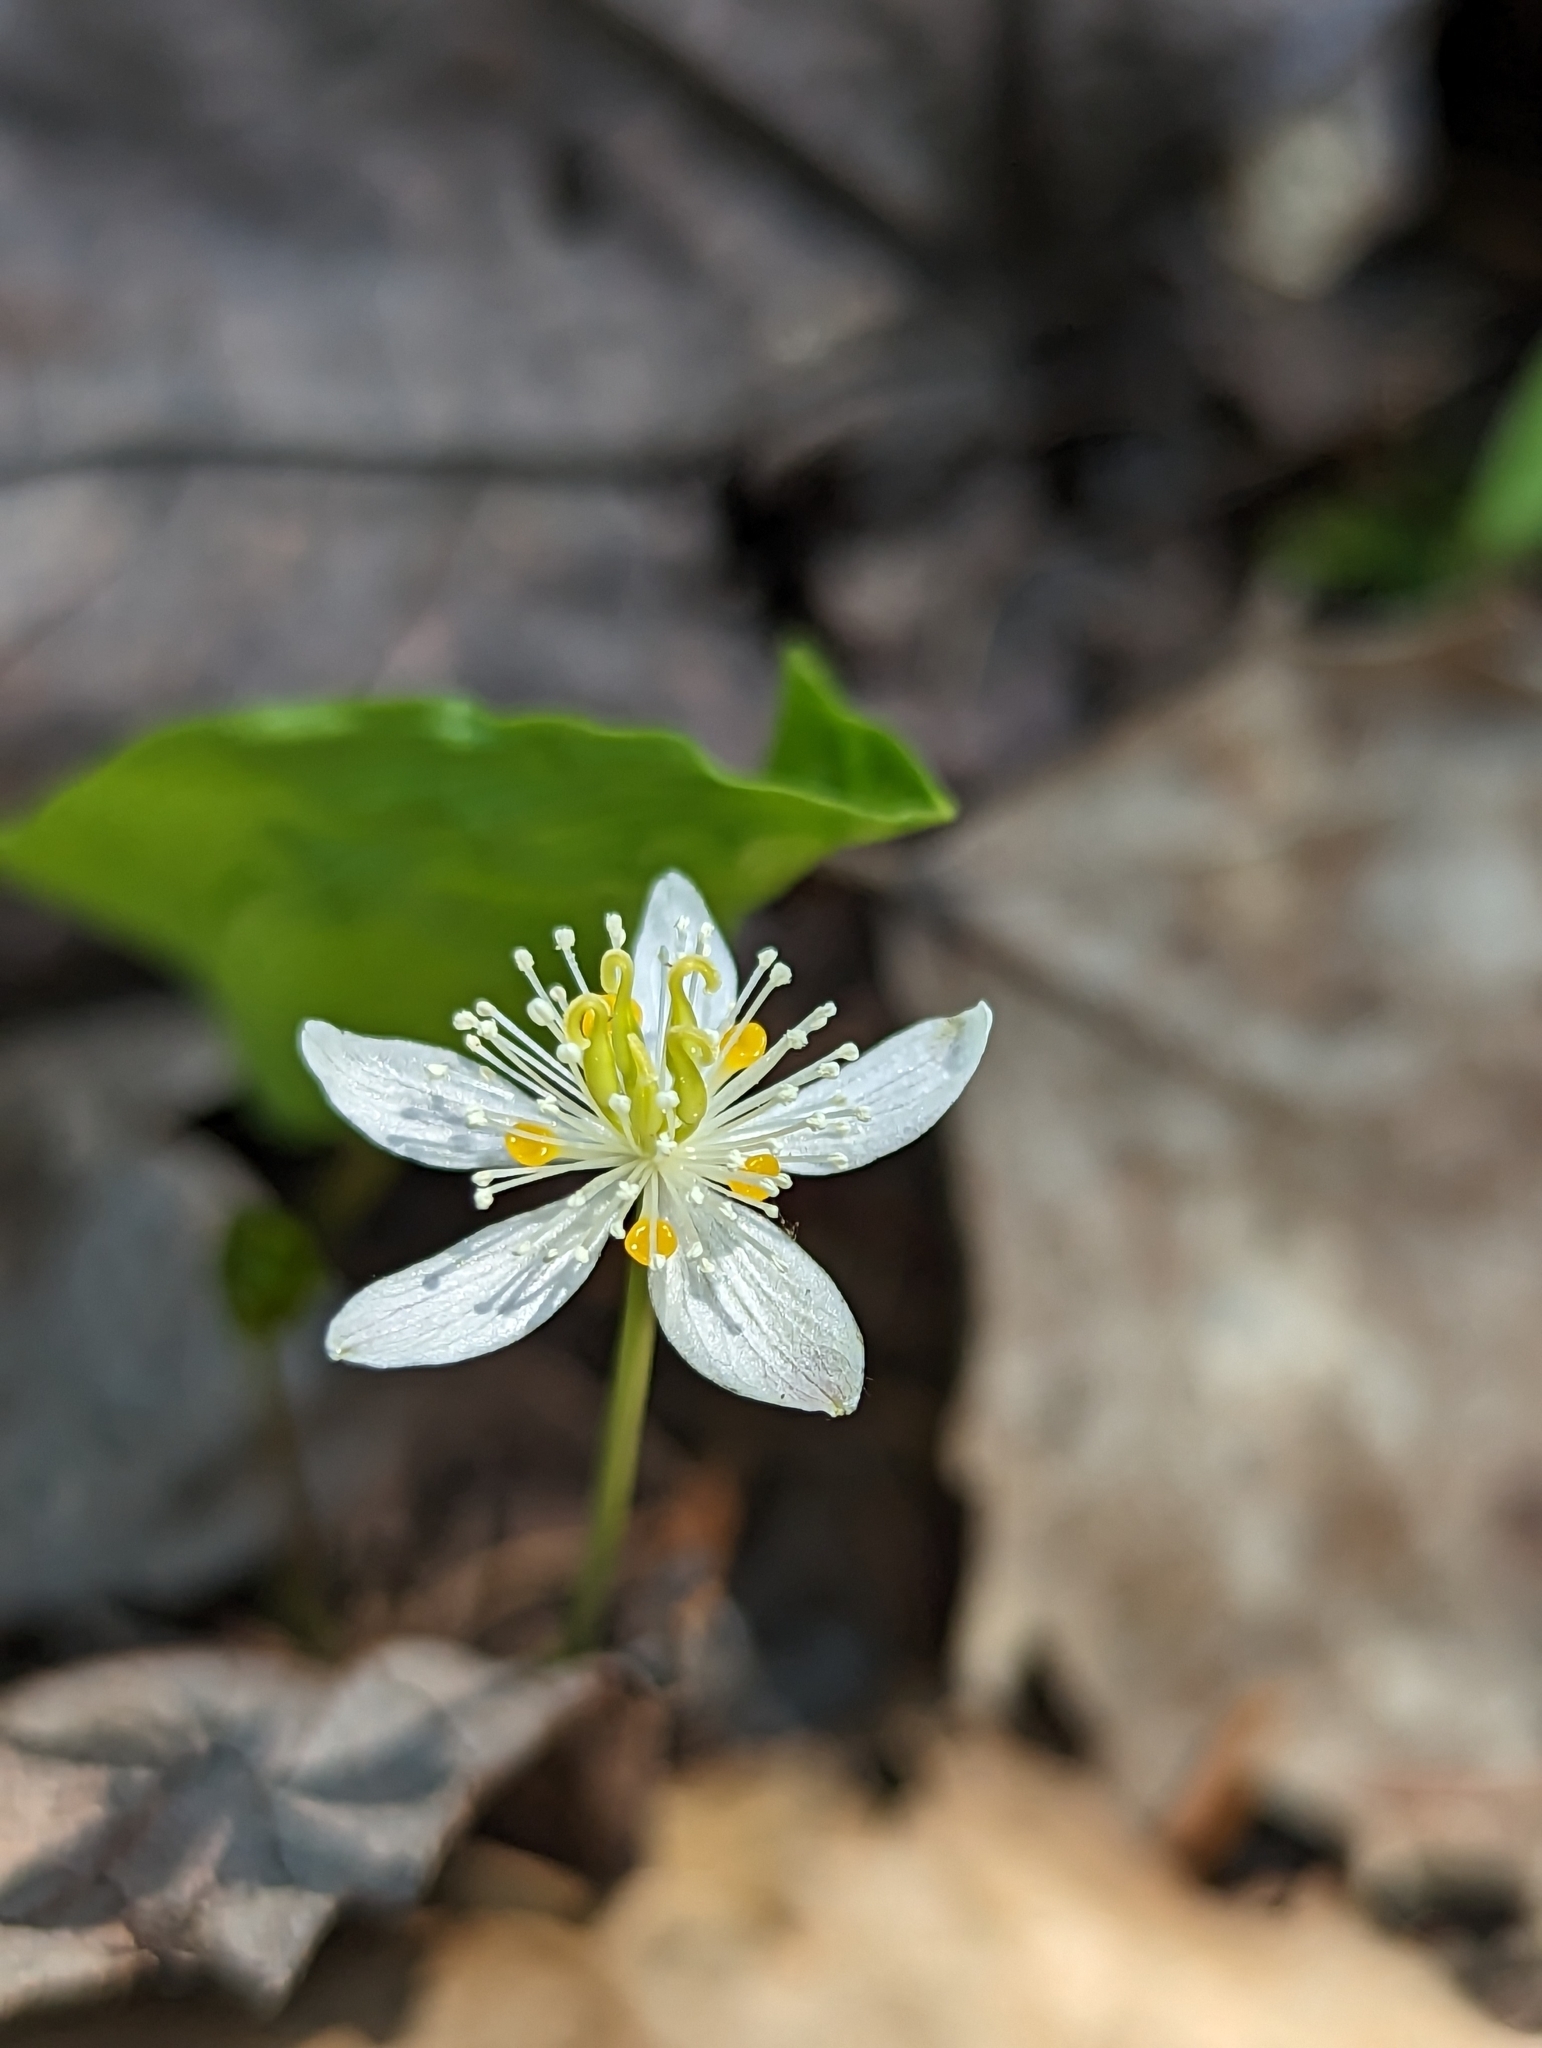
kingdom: Plantae
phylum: Tracheophyta
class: Magnoliopsida
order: Ranunculales
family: Ranunculaceae
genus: Coptis
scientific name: Coptis trifolia
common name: Canker-root
